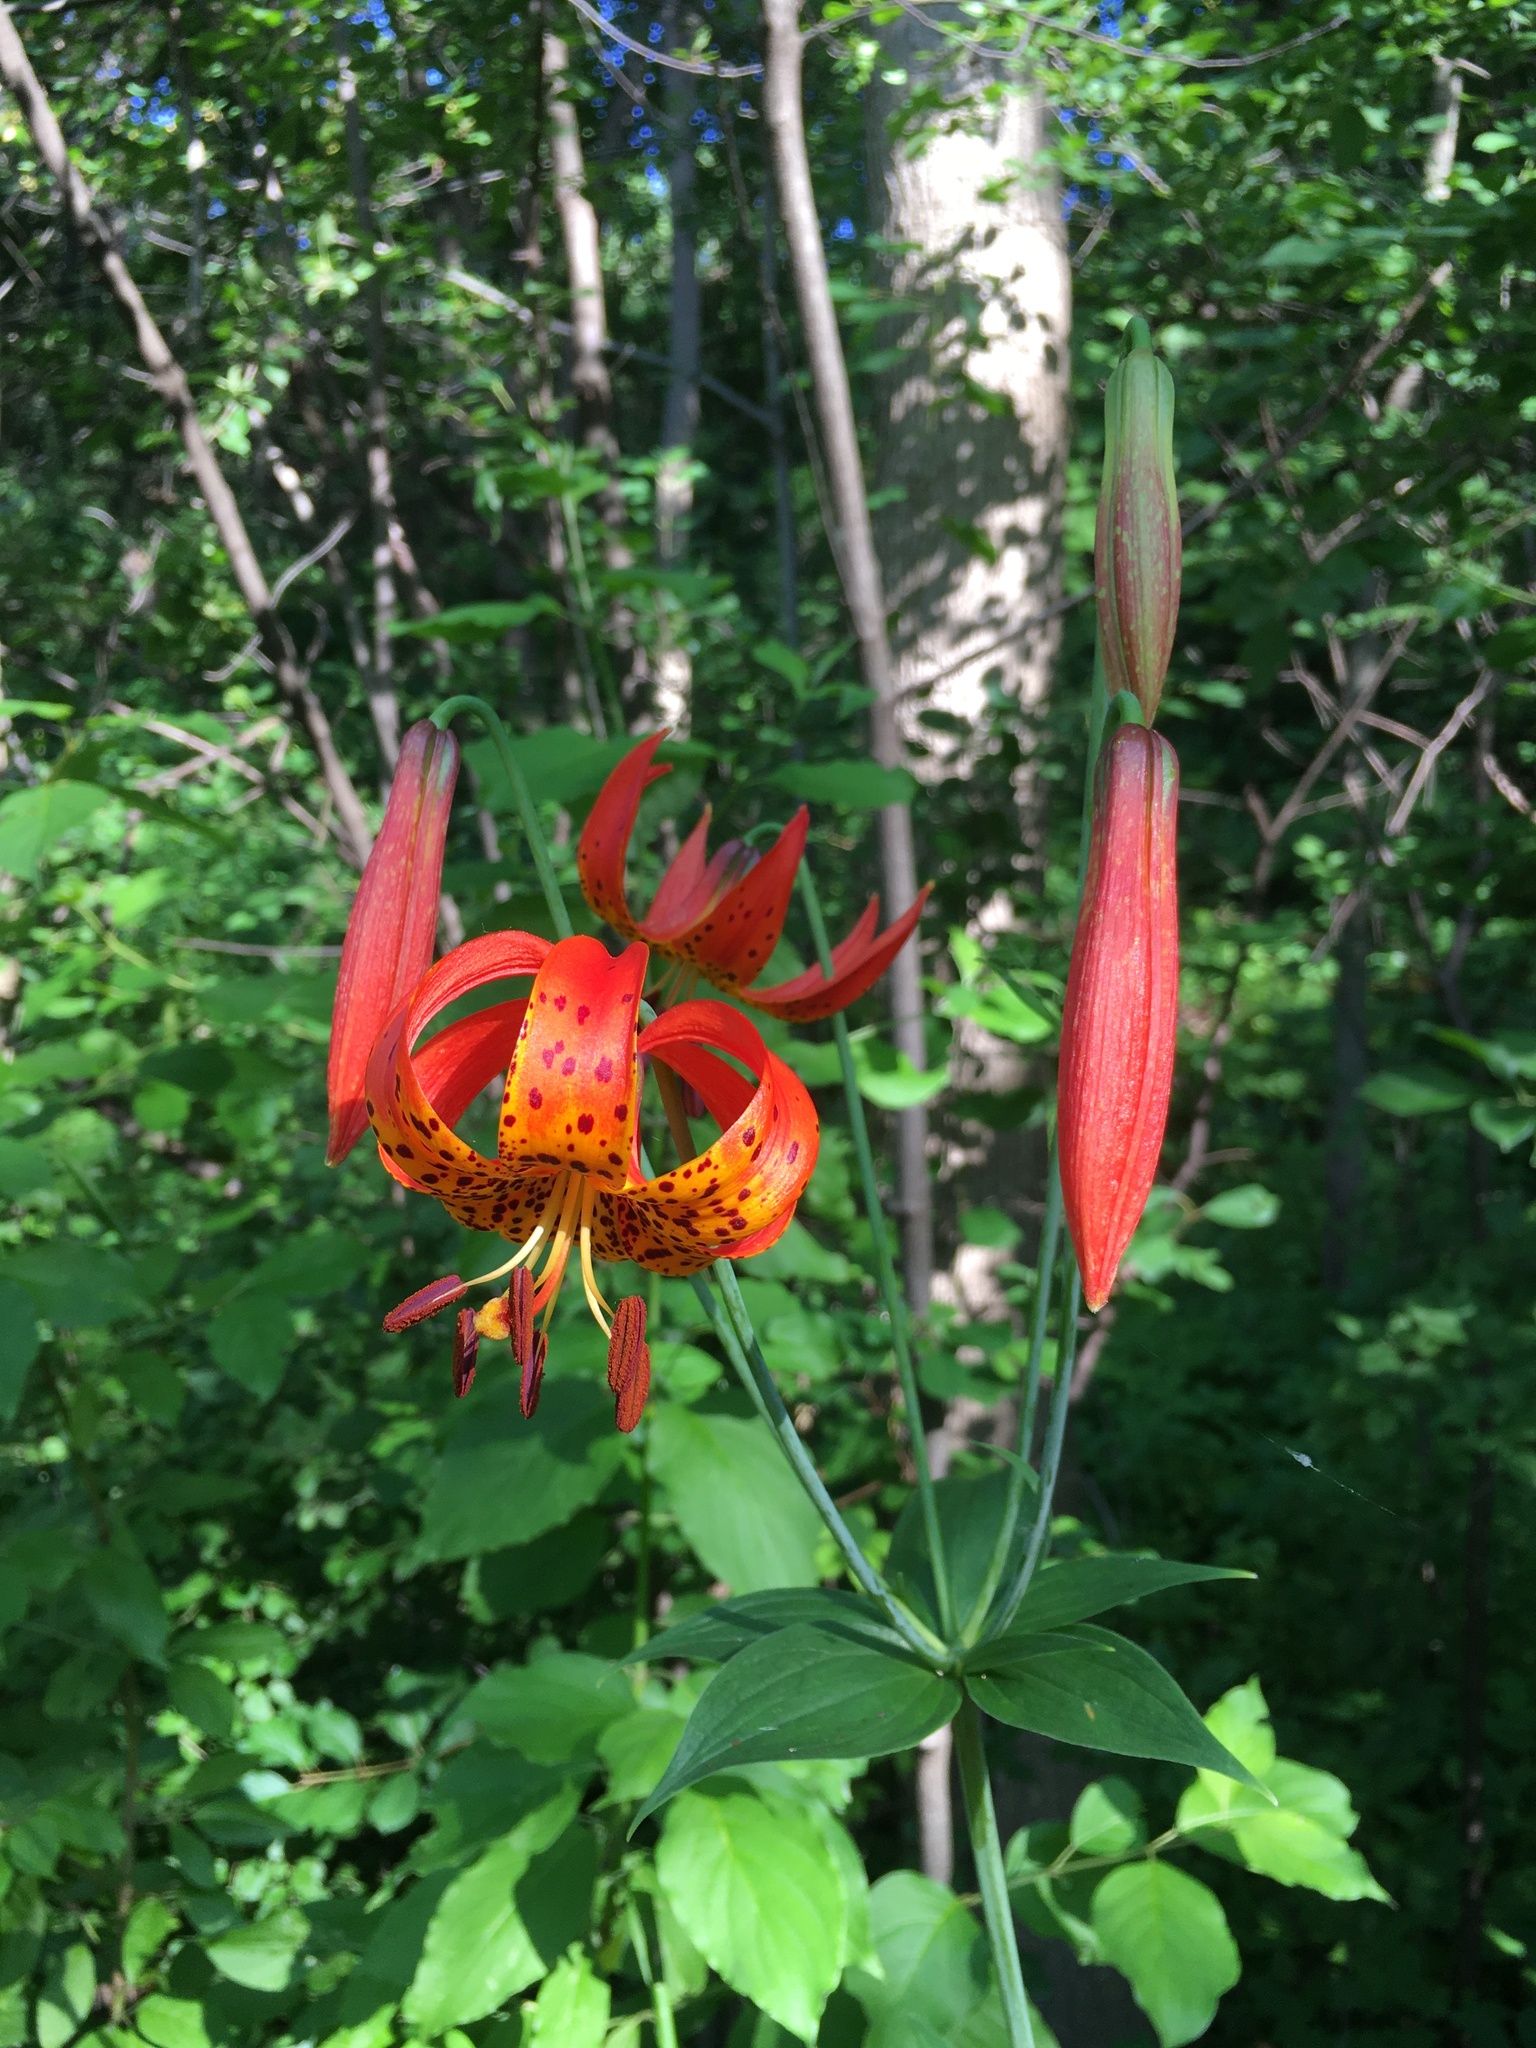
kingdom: Plantae
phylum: Tracheophyta
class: Liliopsida
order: Liliales
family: Liliaceae
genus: Lilium
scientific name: Lilium michiganense
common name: Michigan lily
